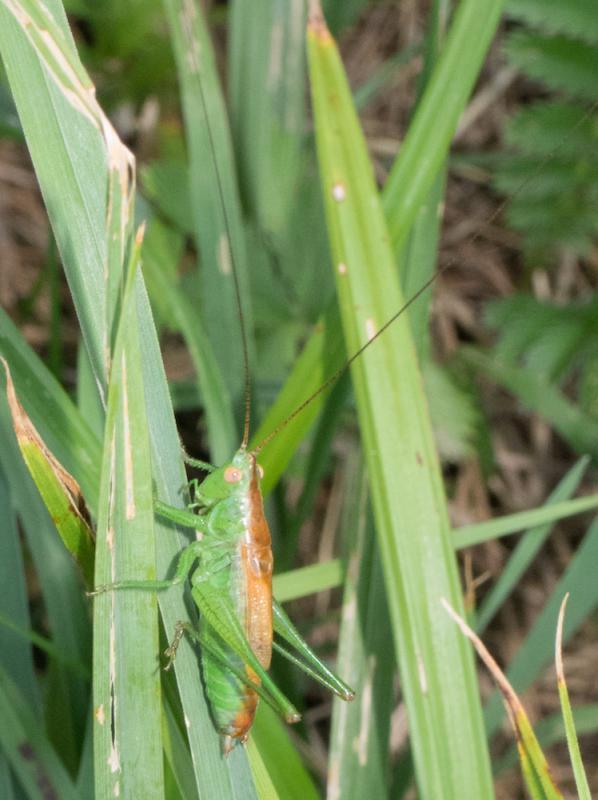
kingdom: Animalia
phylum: Arthropoda
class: Insecta
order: Orthoptera
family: Tettigoniidae
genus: Conocephalus
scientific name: Conocephalus dorsalis
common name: Short-winged conehead
